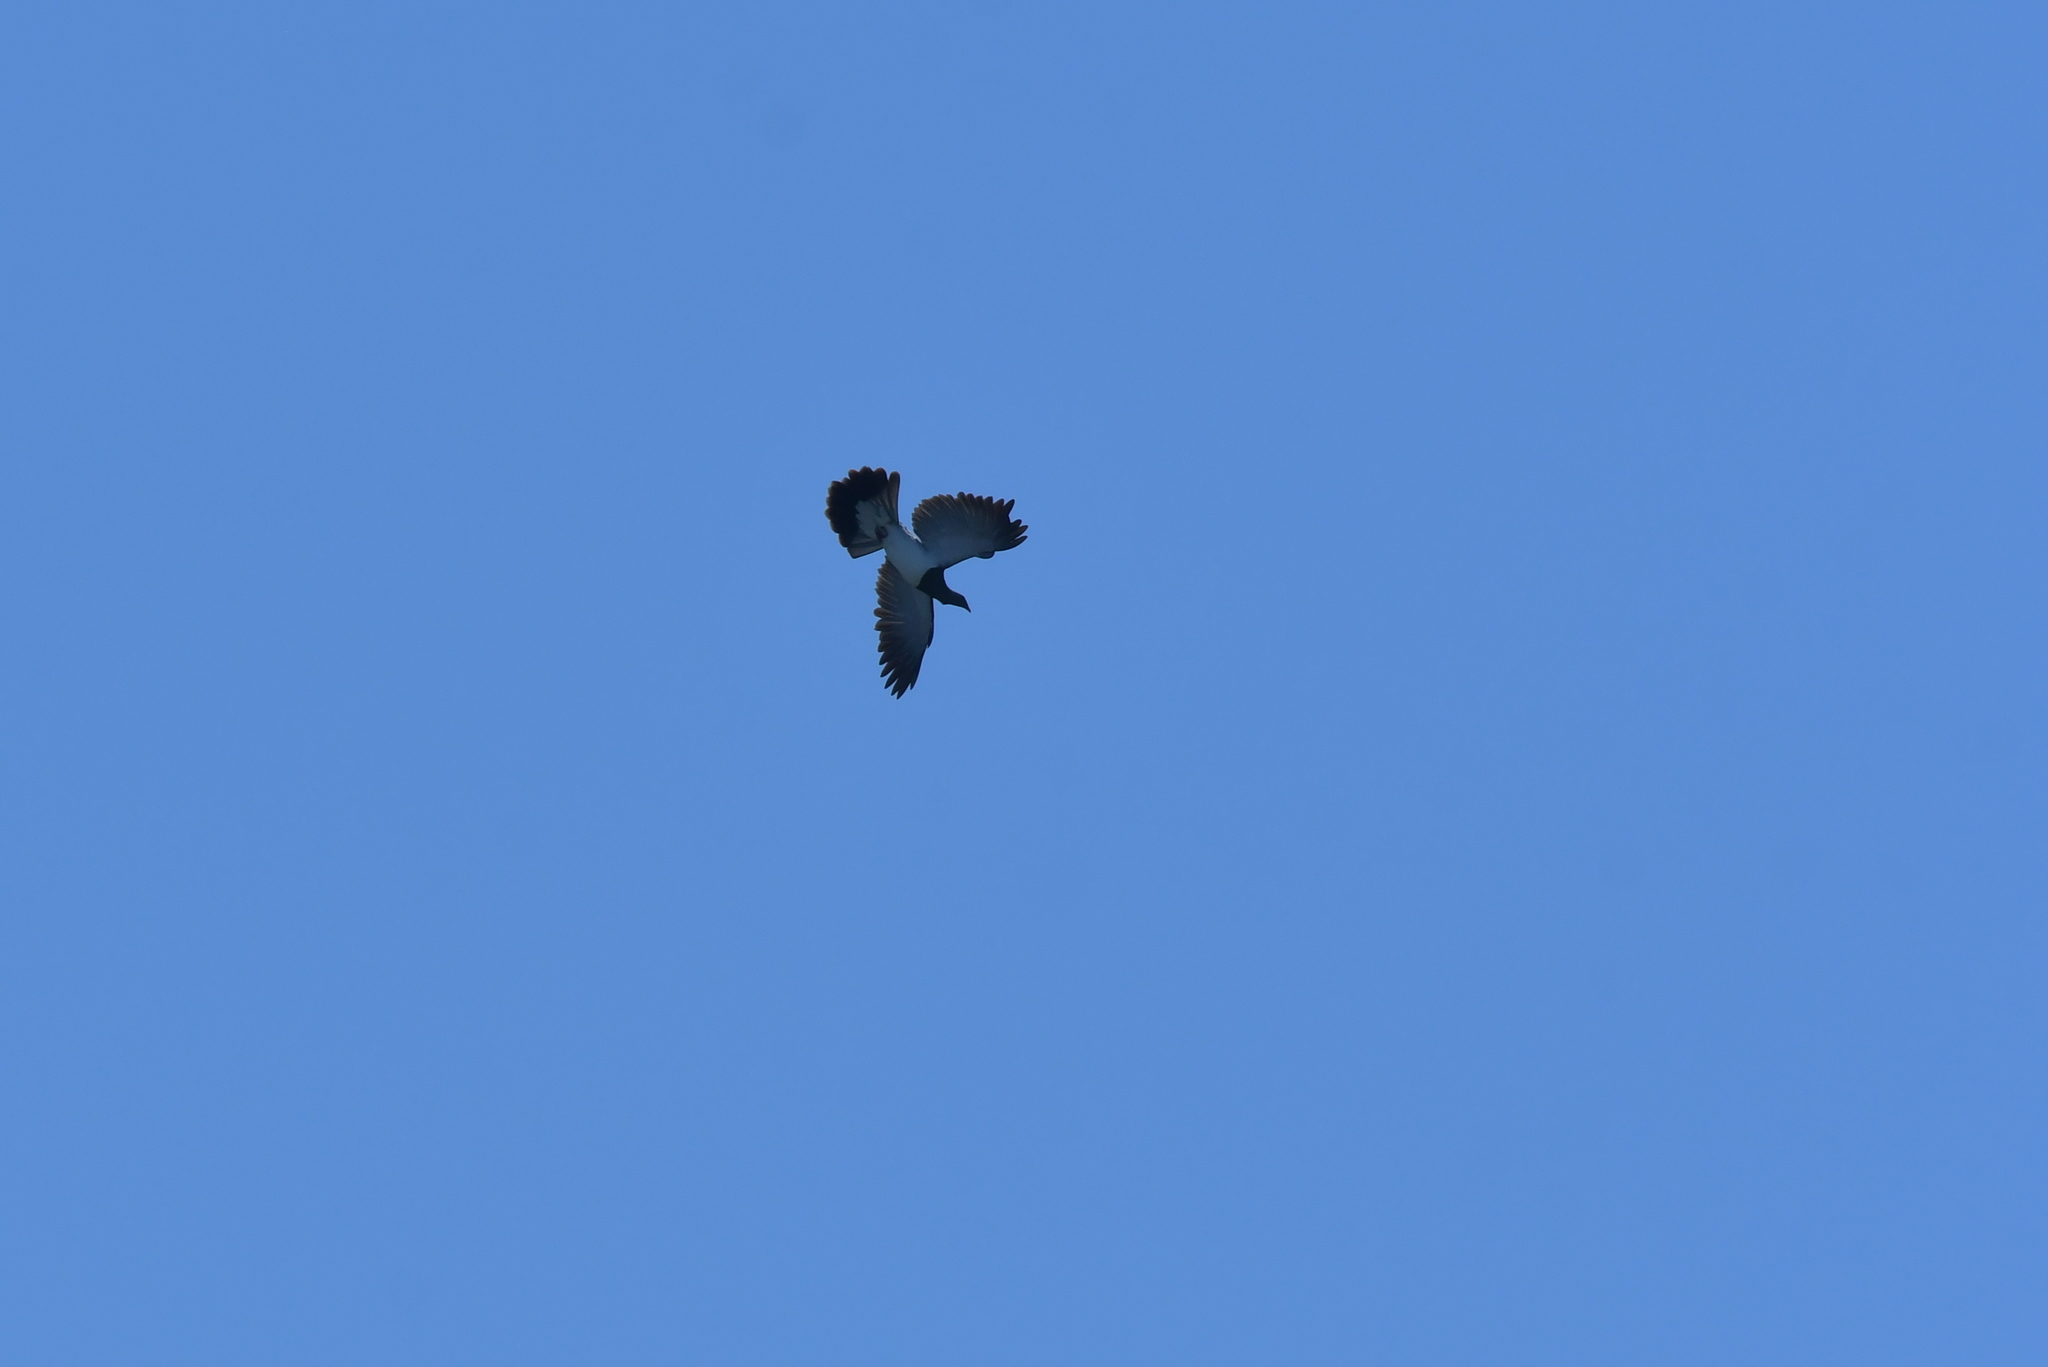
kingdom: Animalia
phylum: Chordata
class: Aves
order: Columbiformes
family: Columbidae
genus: Hemiphaga
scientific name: Hemiphaga novaeseelandiae
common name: New zealand pigeon
